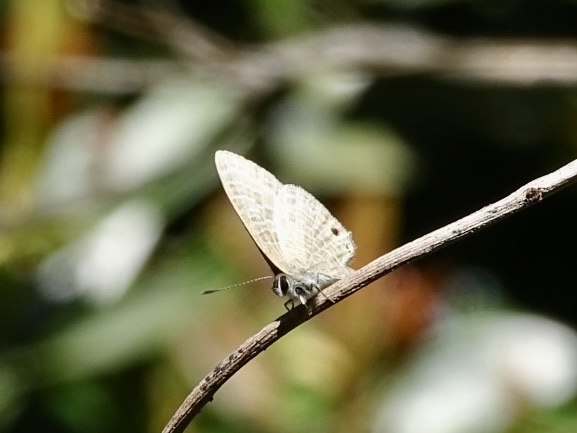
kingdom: Animalia
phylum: Arthropoda
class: Insecta
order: Lepidoptera
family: Lycaenidae
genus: Nacaduba
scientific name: Nacaduba kurava
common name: Transparent 6-line blue
